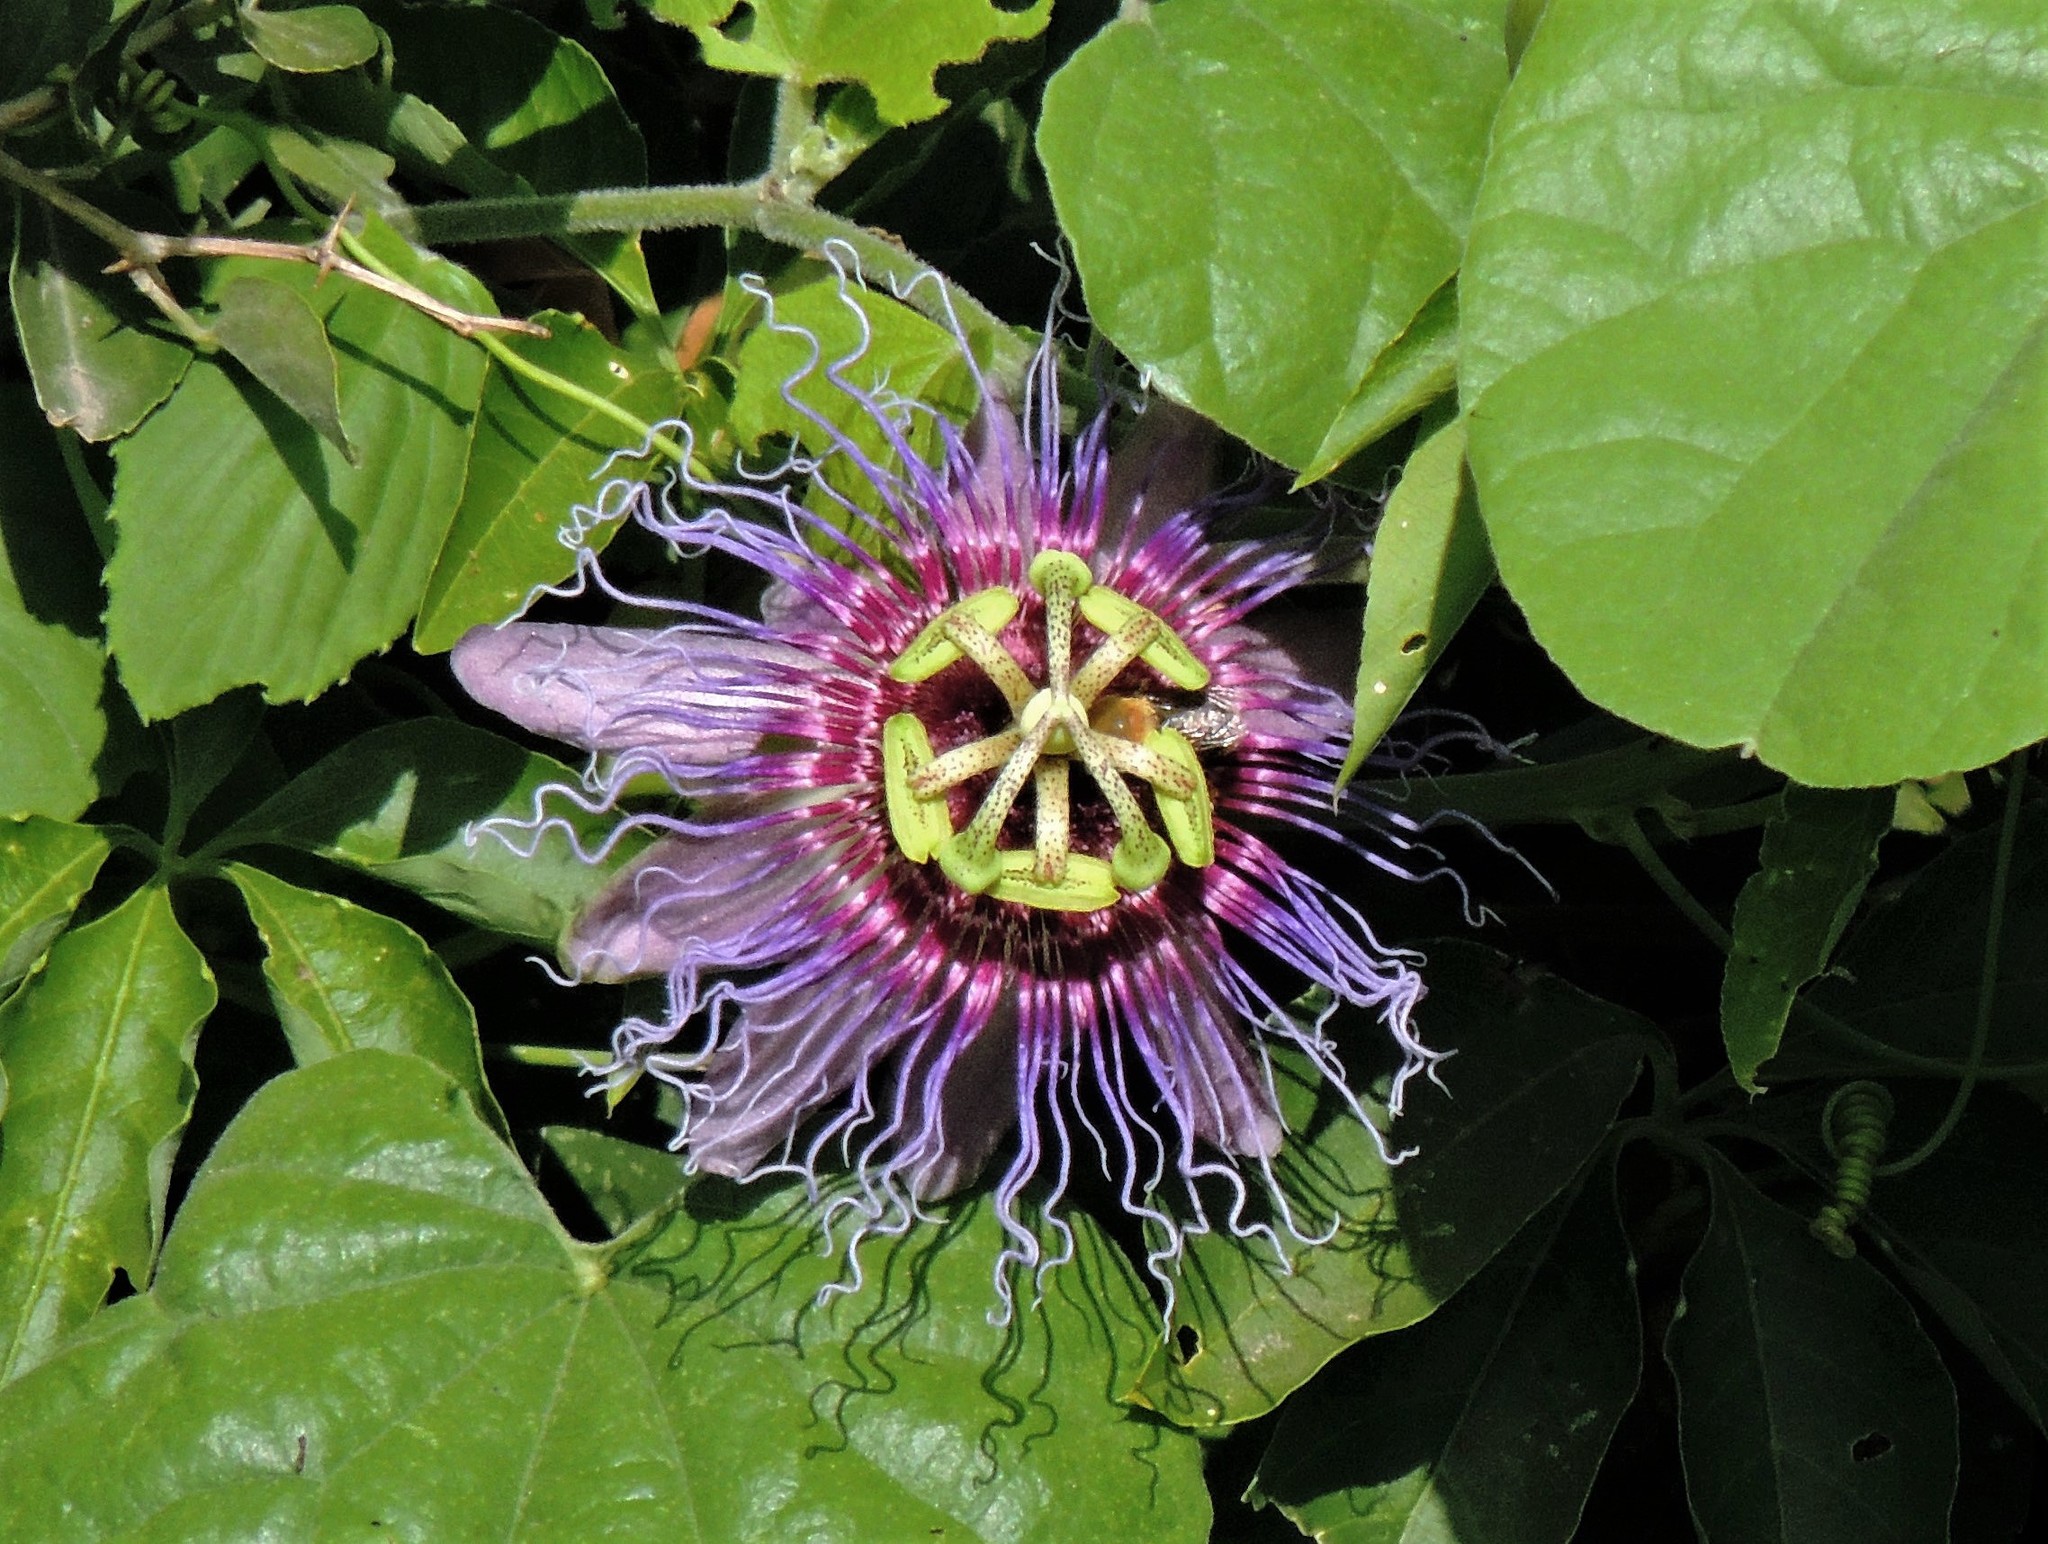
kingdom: Plantae
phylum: Tracheophyta
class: Magnoliopsida
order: Malpighiales
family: Passifloraceae
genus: Passiflora
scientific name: Passiflora cincinnata
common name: Crato passionvine
